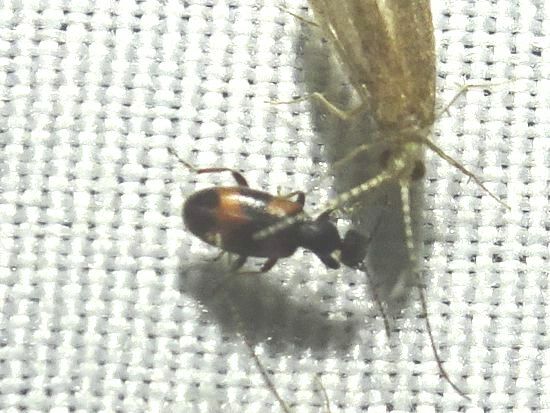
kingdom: Animalia
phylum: Arthropoda
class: Insecta
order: Coleoptera
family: Anthicidae
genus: Anthicus
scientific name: Anthicus antherinus
